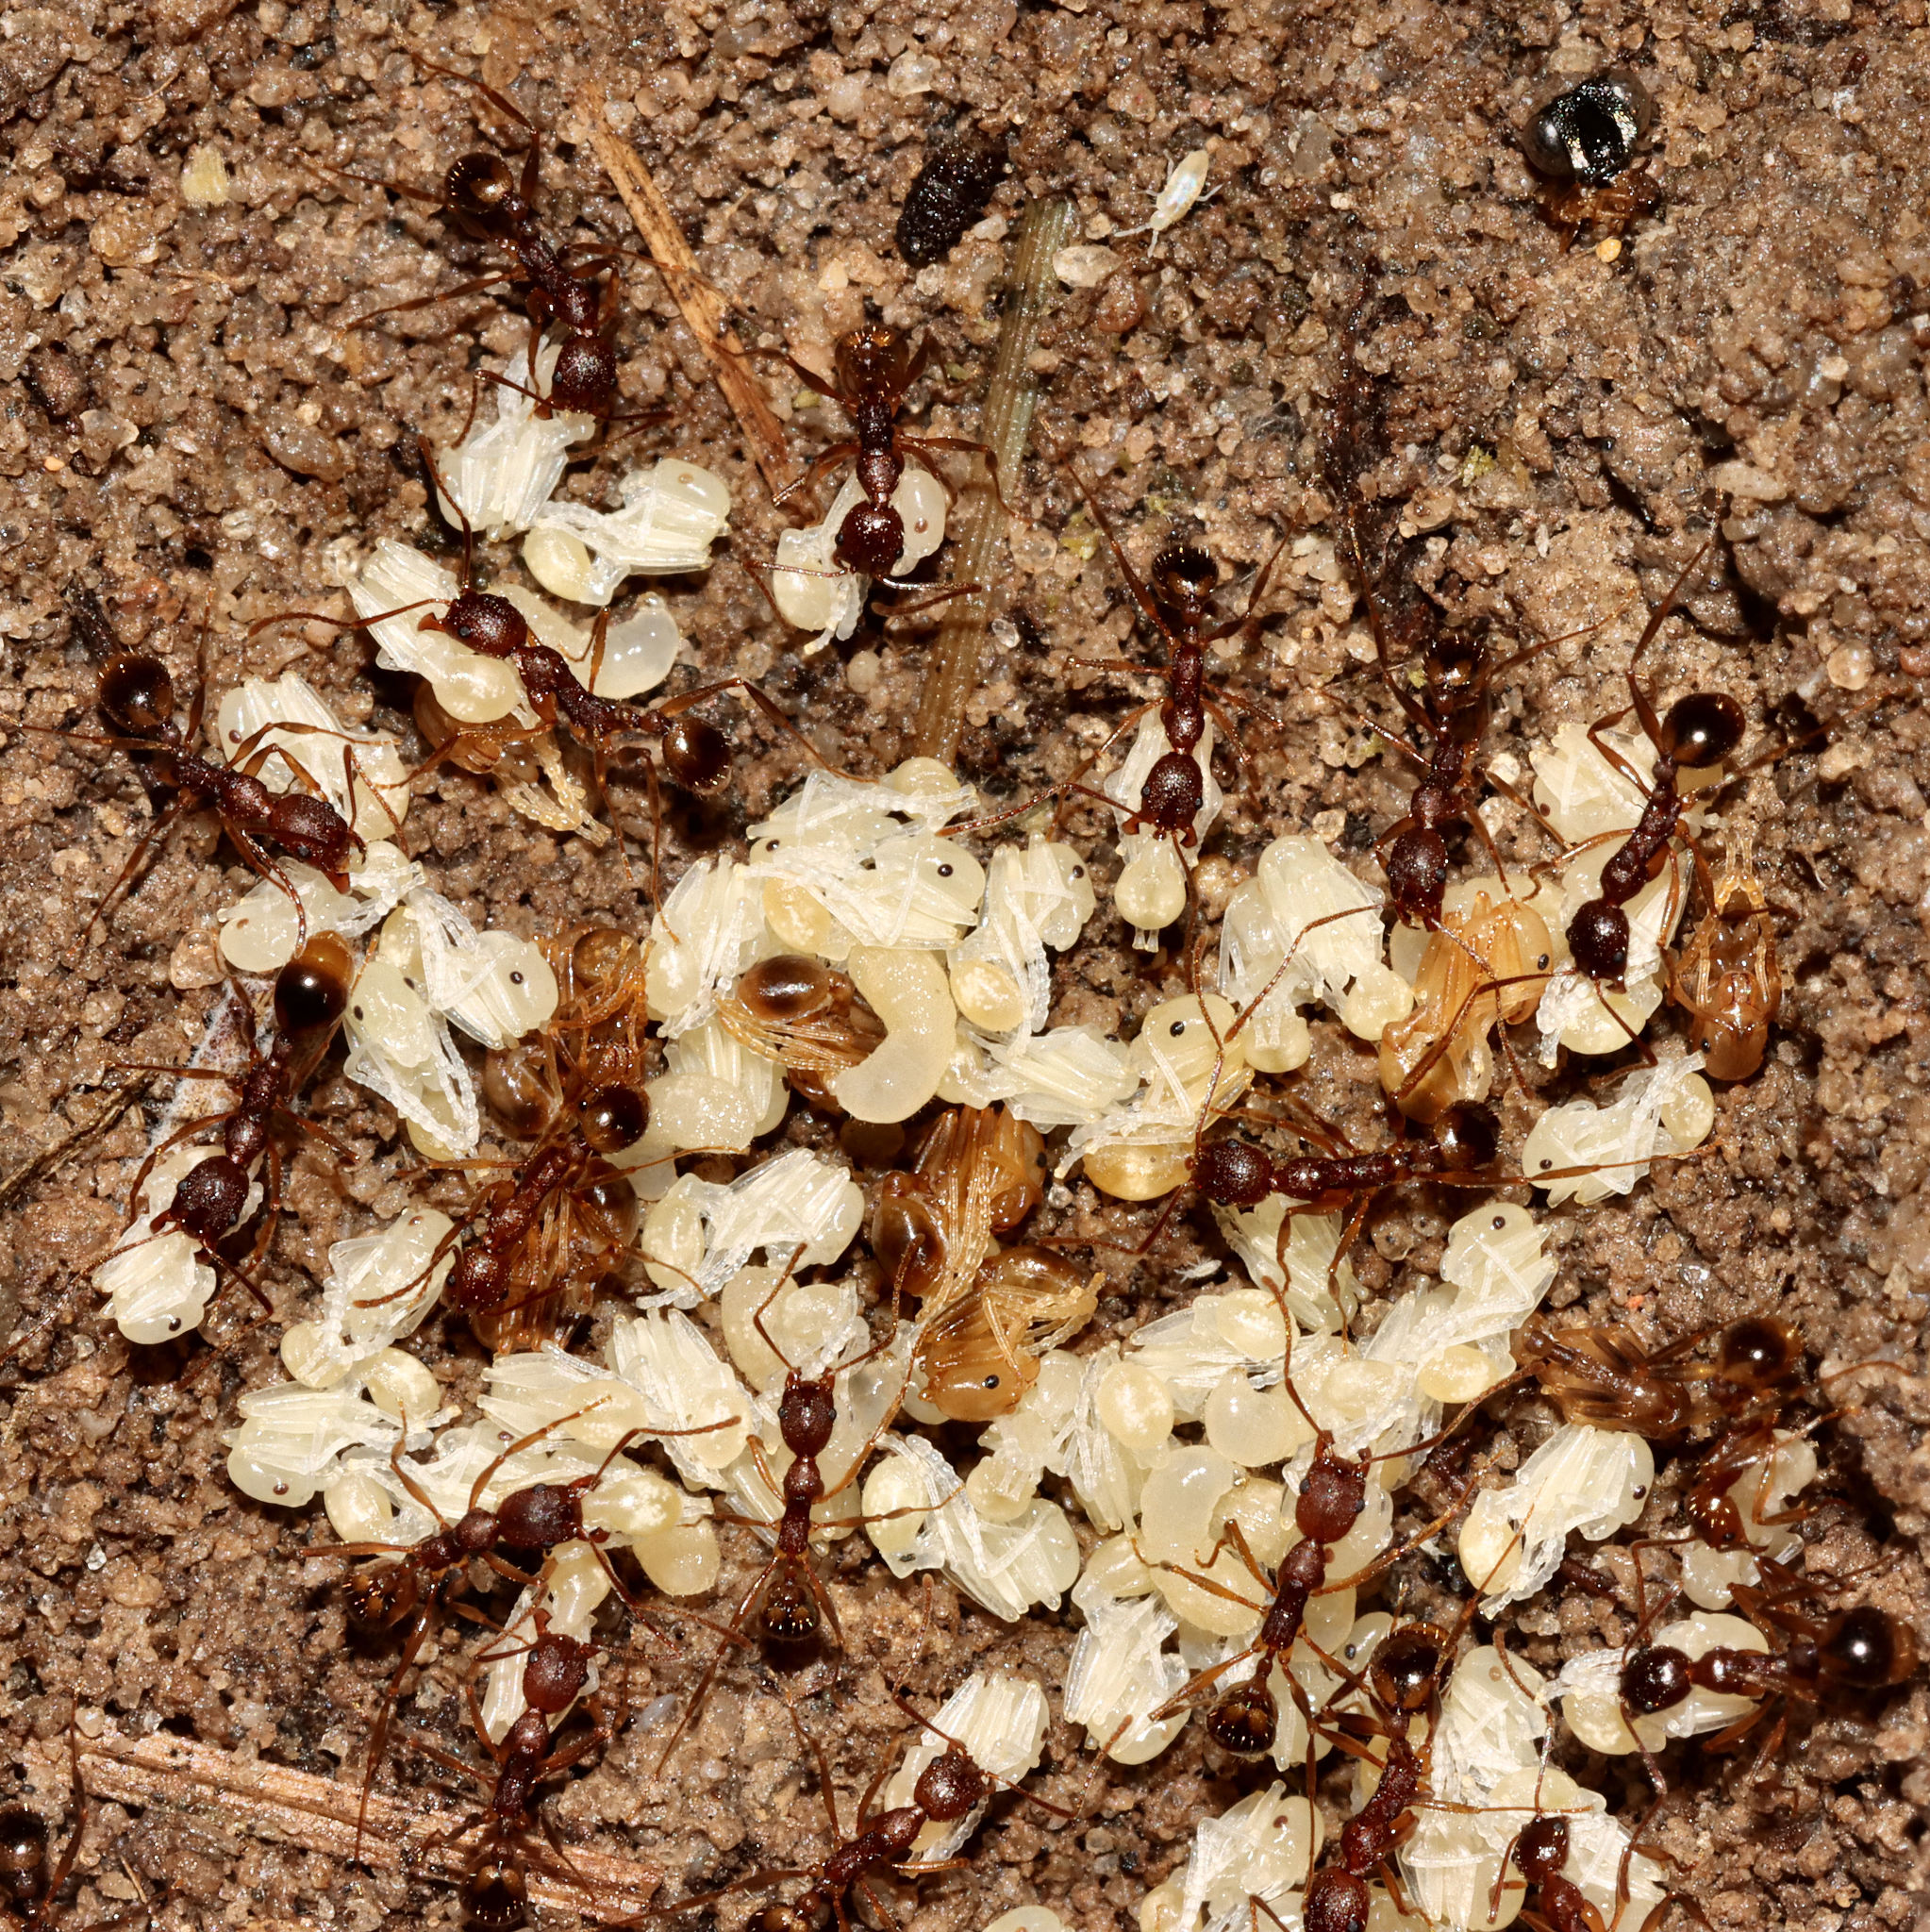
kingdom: Animalia
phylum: Arthropoda
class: Insecta
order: Hymenoptera
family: Formicidae
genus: Aphaenogaster
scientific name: Aphaenogaster carolinensis
